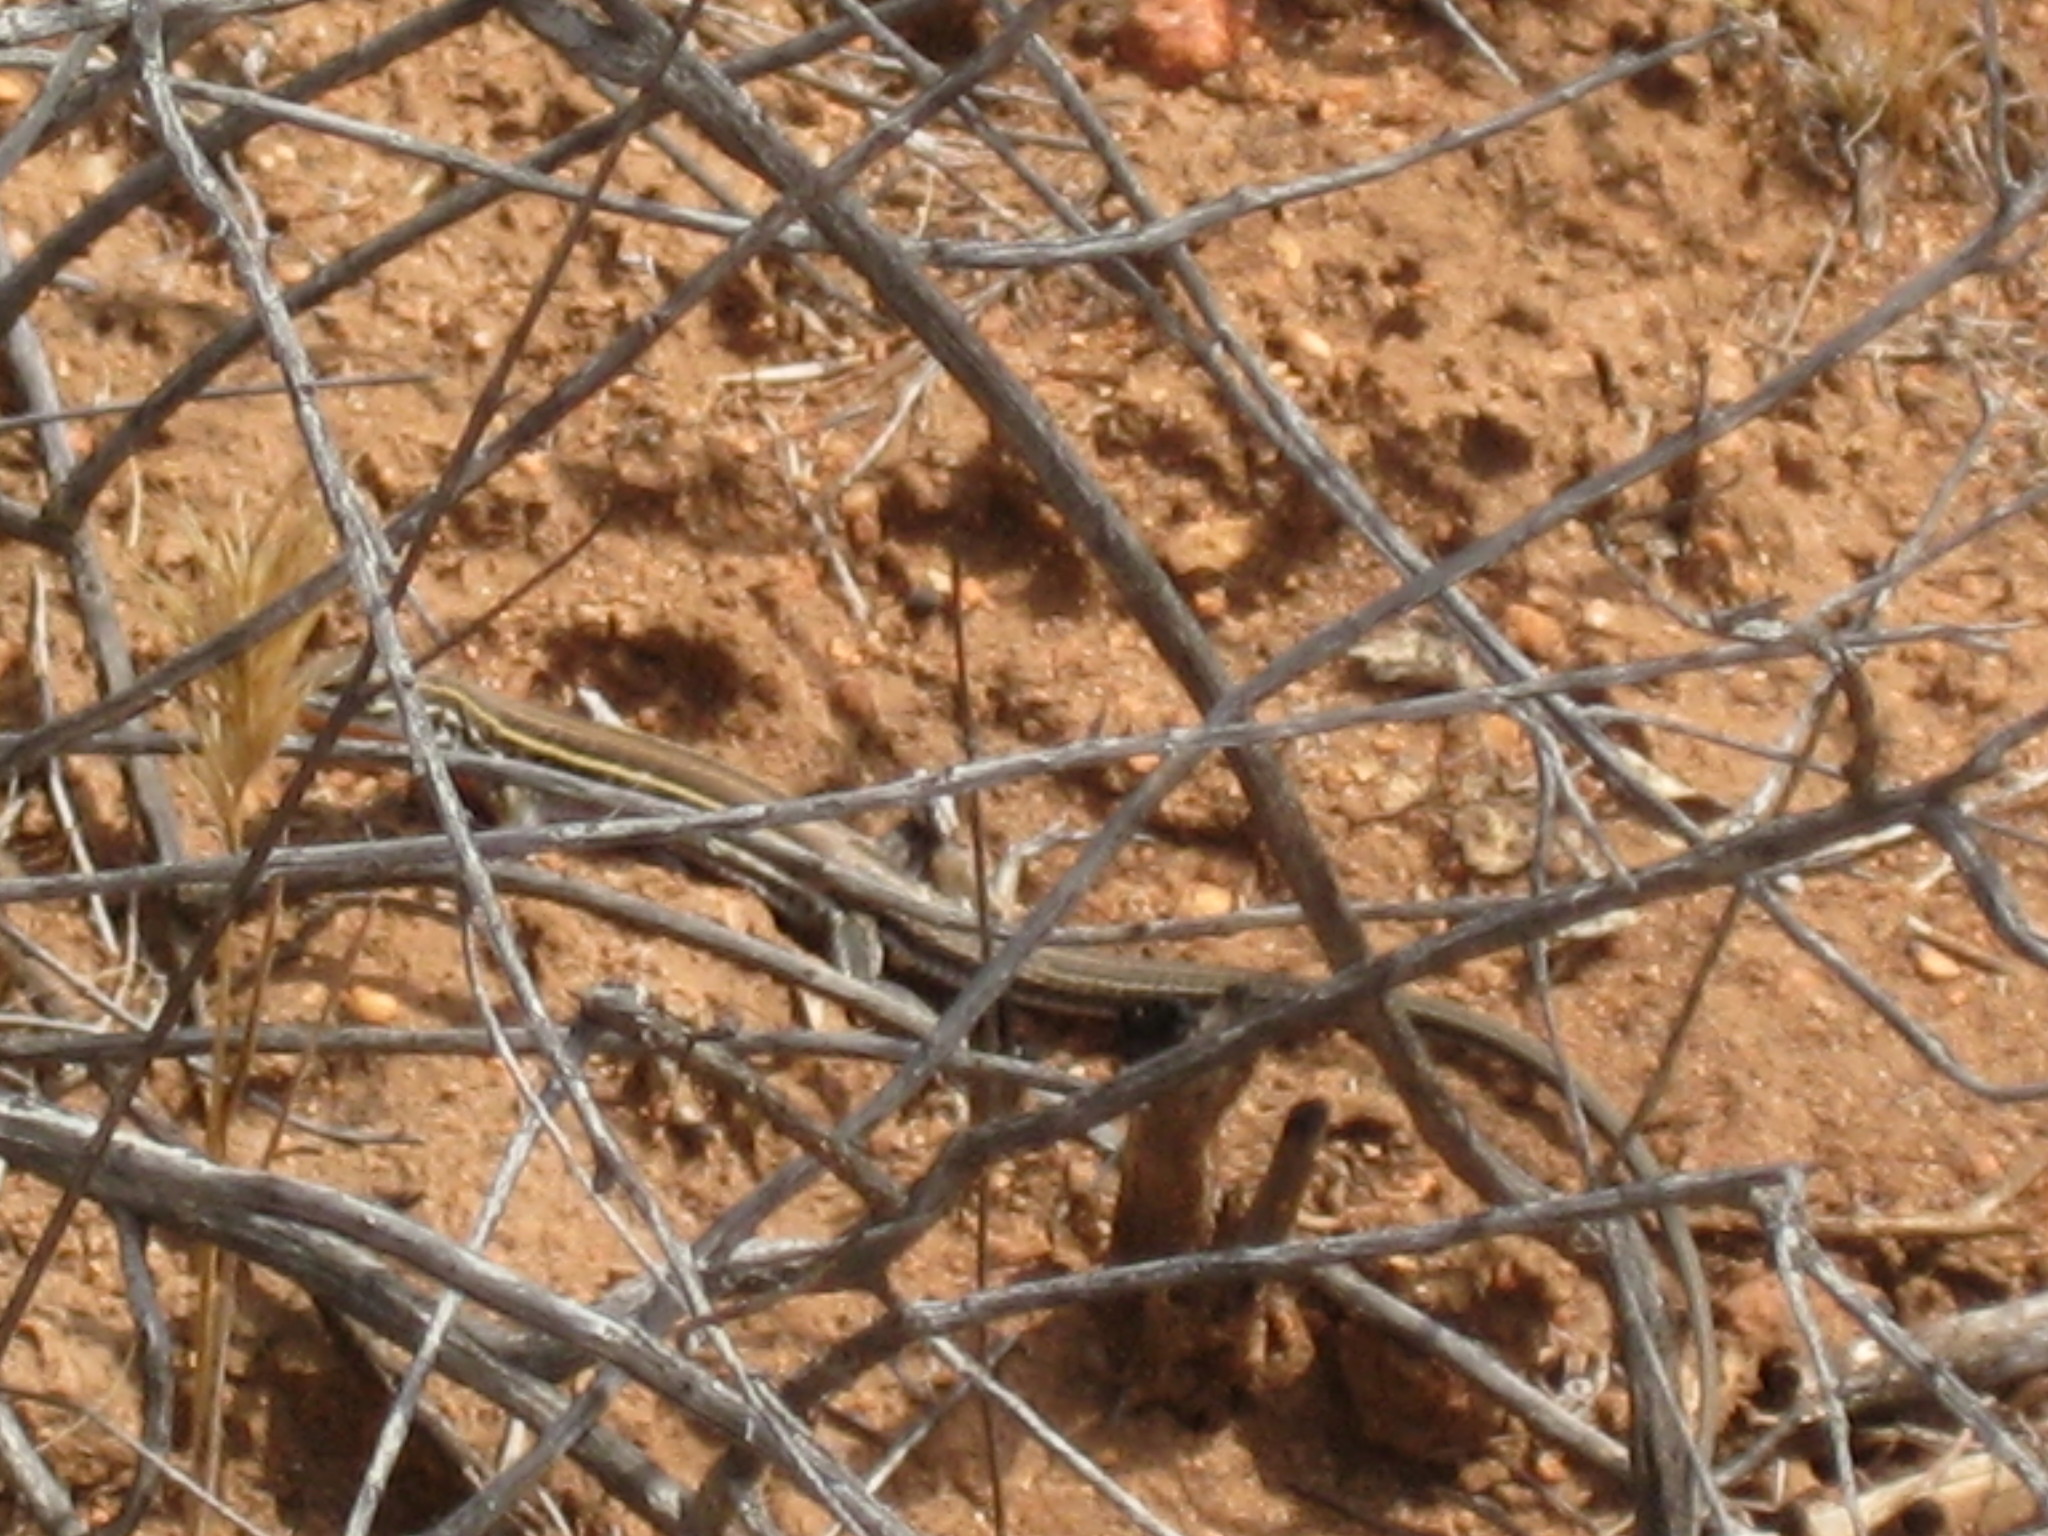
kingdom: Animalia
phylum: Chordata
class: Squamata
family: Teiidae
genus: Aspidoscelis
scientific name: Aspidoscelis hyperythrus
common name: Orange-throated race-runner
